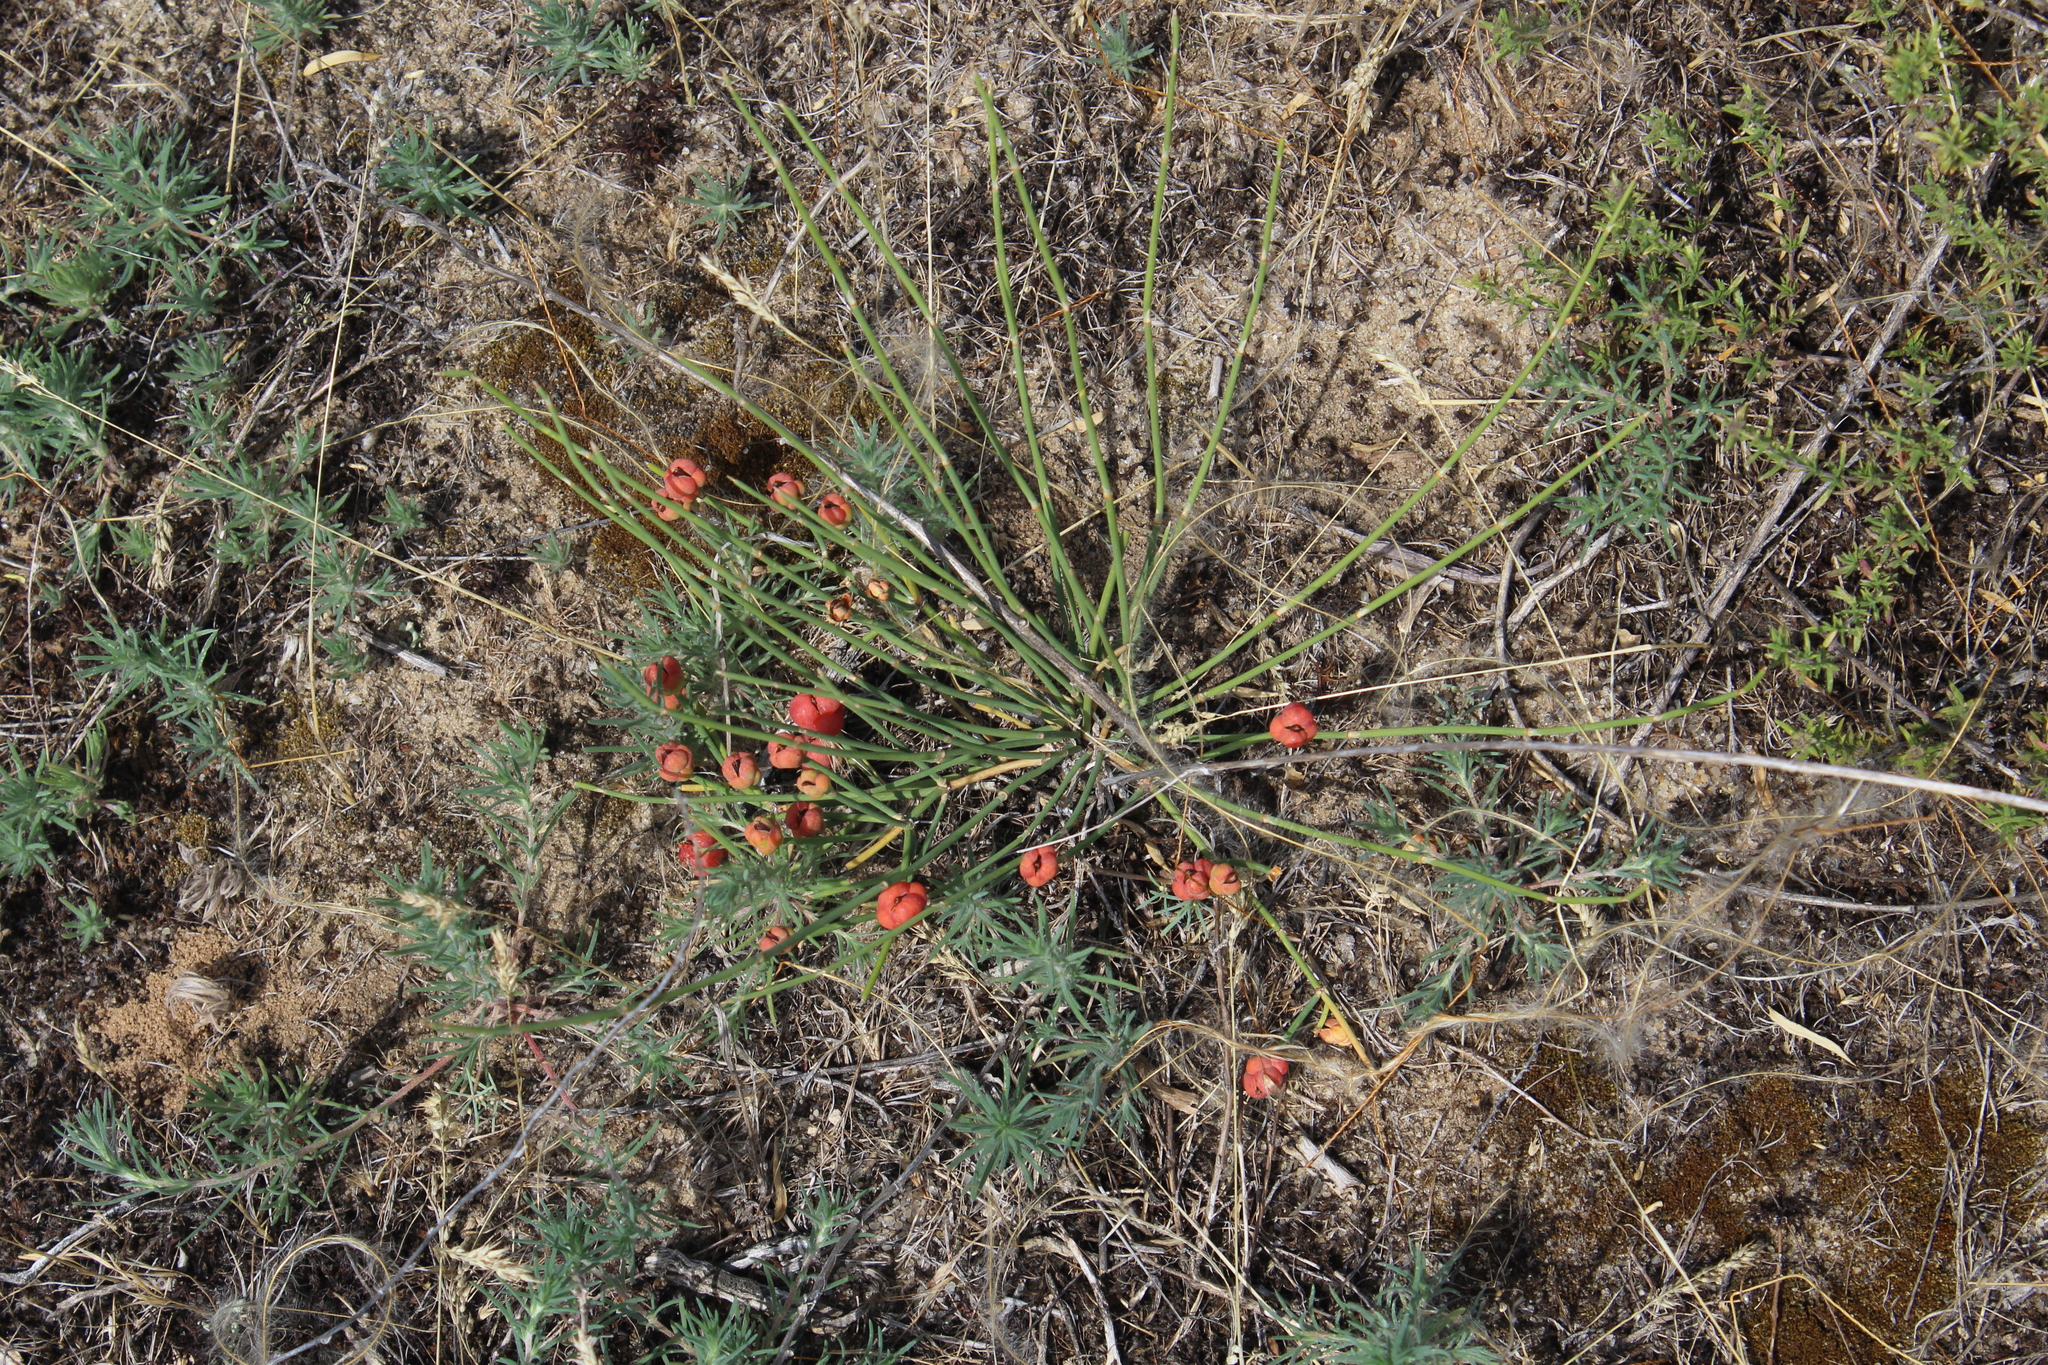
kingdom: Plantae
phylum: Tracheophyta
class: Gnetopsida
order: Ephedrales
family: Ephedraceae
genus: Ephedra
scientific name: Ephedra distachya
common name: Sea grape
